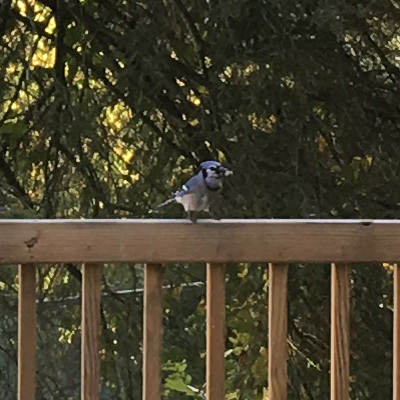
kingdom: Animalia
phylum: Chordata
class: Aves
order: Passeriformes
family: Corvidae
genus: Cyanocitta
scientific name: Cyanocitta cristata
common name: Blue jay
